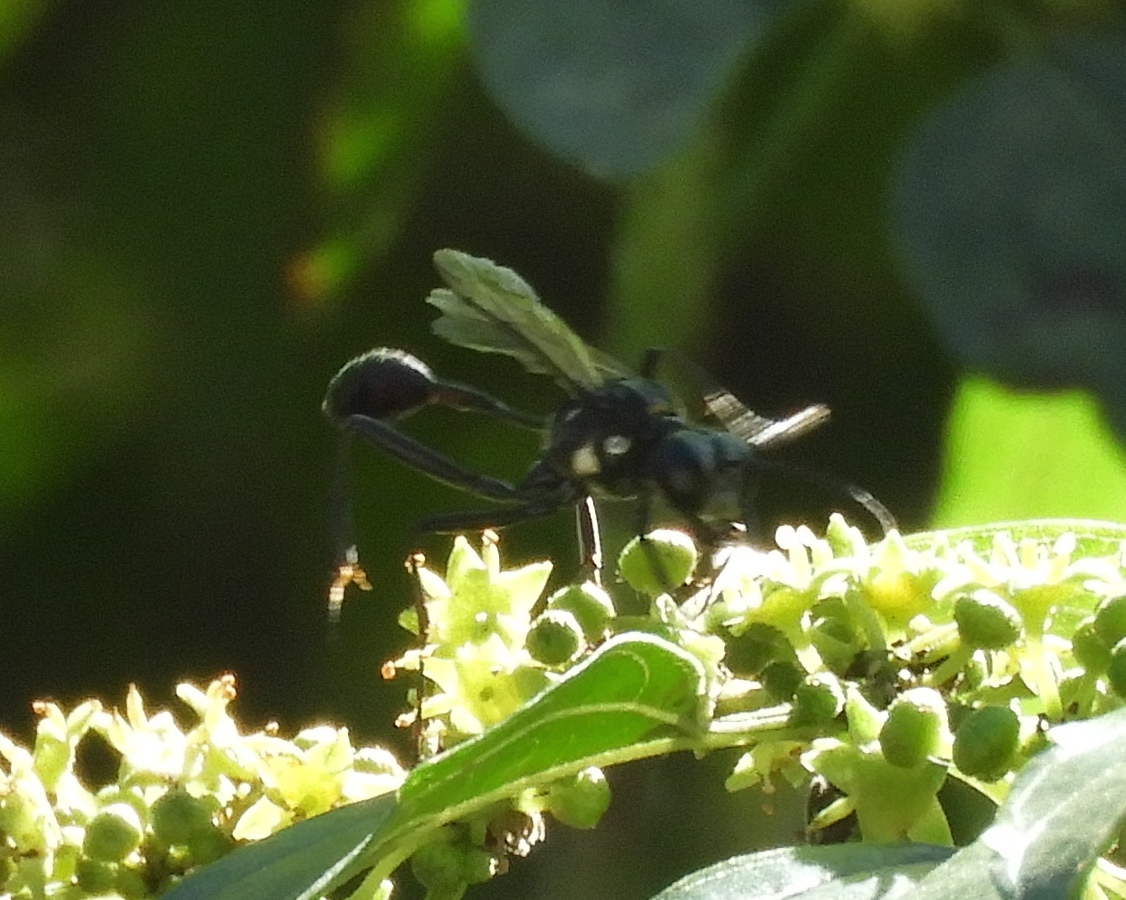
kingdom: Animalia
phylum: Arthropoda
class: Insecta
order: Hymenoptera
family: Sphecidae
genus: Eremnophila
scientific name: Eremnophila
